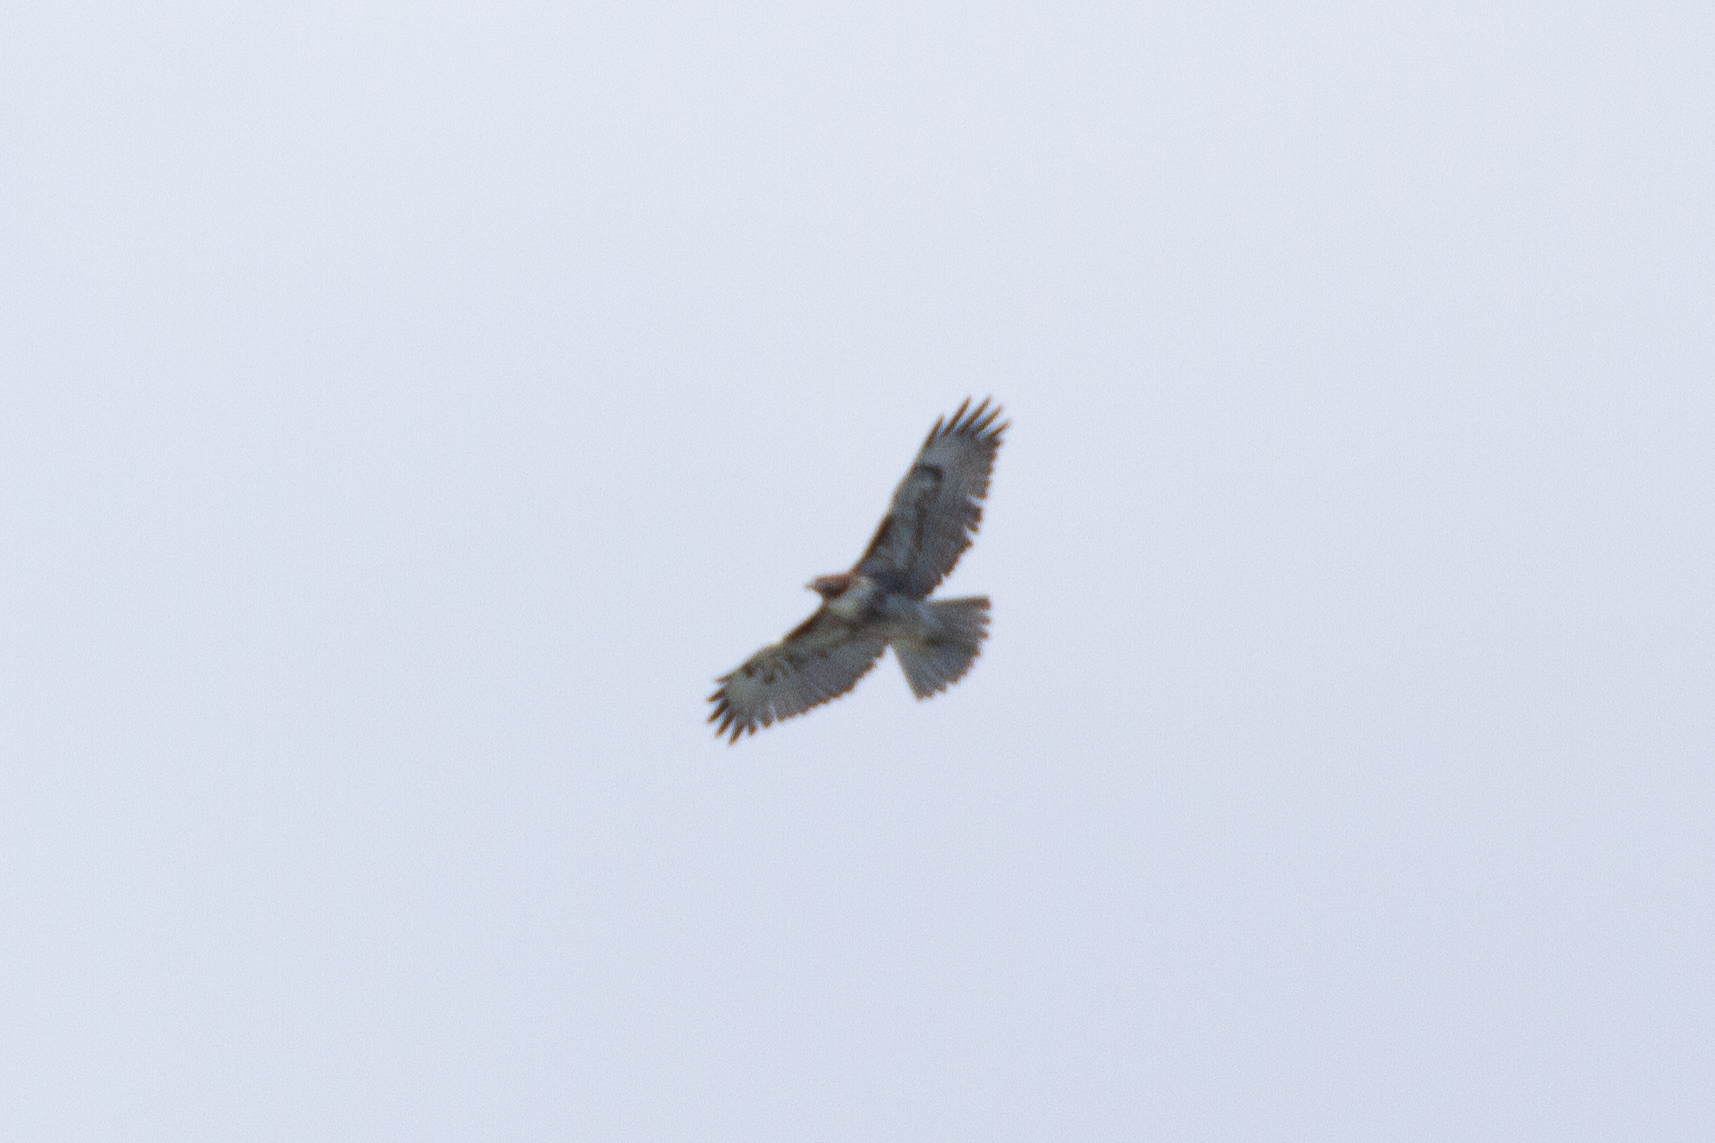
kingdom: Animalia
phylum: Chordata
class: Aves
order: Accipitriformes
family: Accipitridae
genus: Buteo
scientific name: Buteo jamaicensis
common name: Red-tailed hawk
